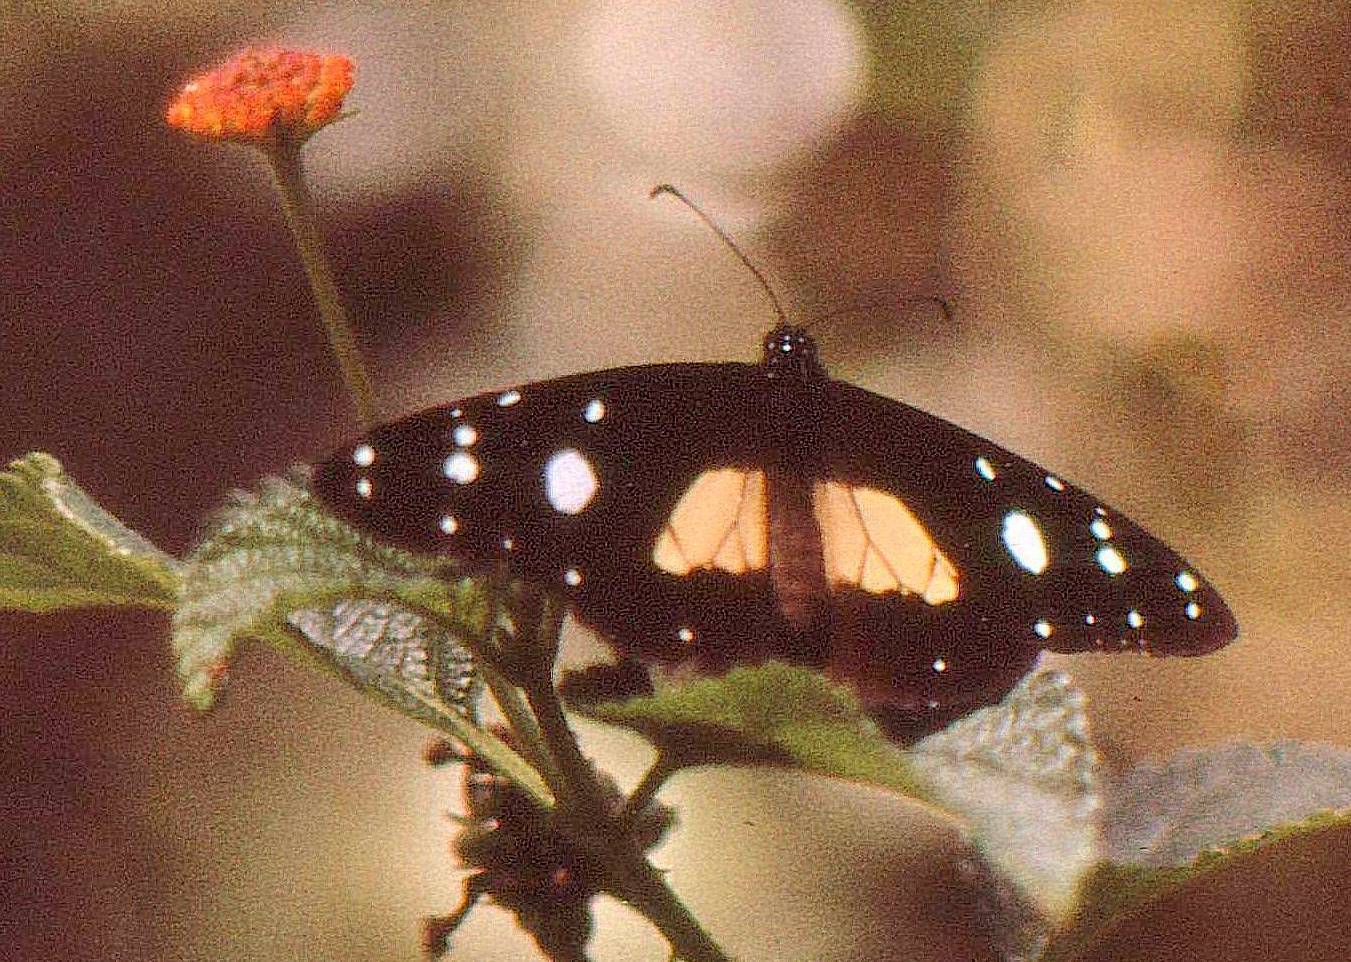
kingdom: Animalia
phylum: Arthropoda
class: Insecta
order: Lepidoptera
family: Nymphalidae
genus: Amauris
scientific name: Amauris albimaculata
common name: Layman
